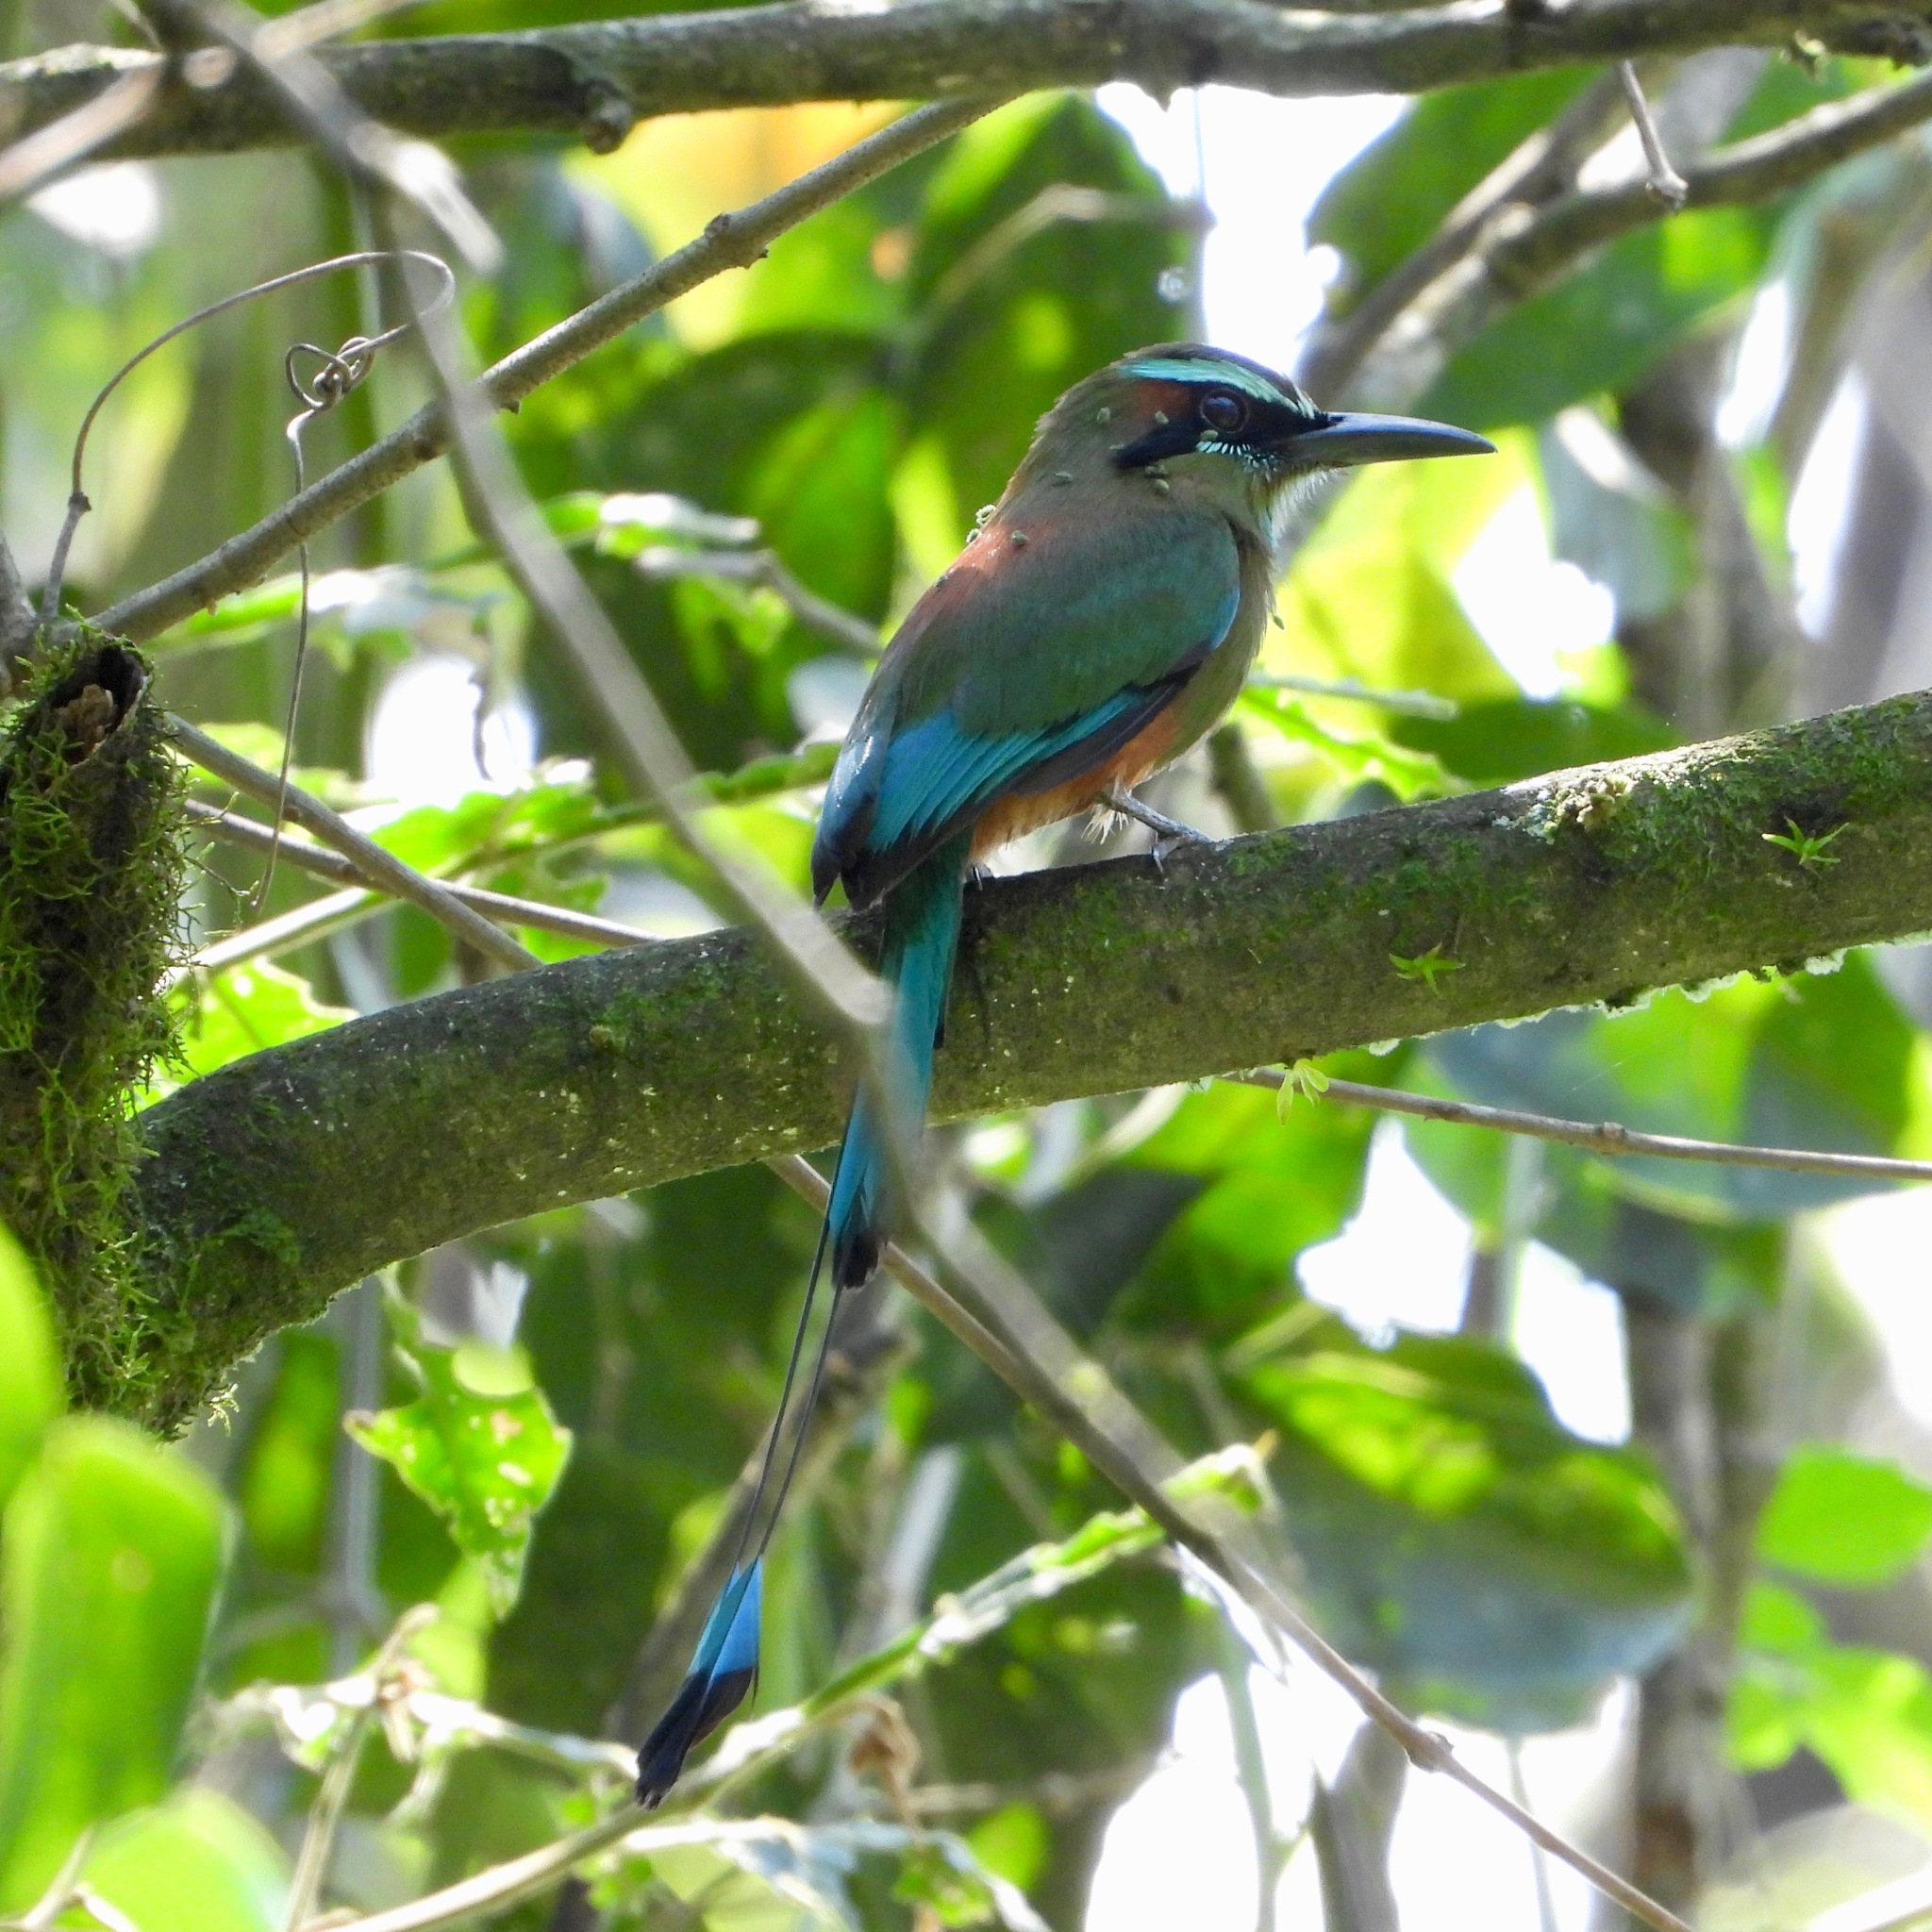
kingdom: Animalia
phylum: Chordata
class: Aves
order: Coraciiformes
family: Momotidae
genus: Eumomota
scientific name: Eumomota superciliosa
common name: Turquoise-browed motmot
